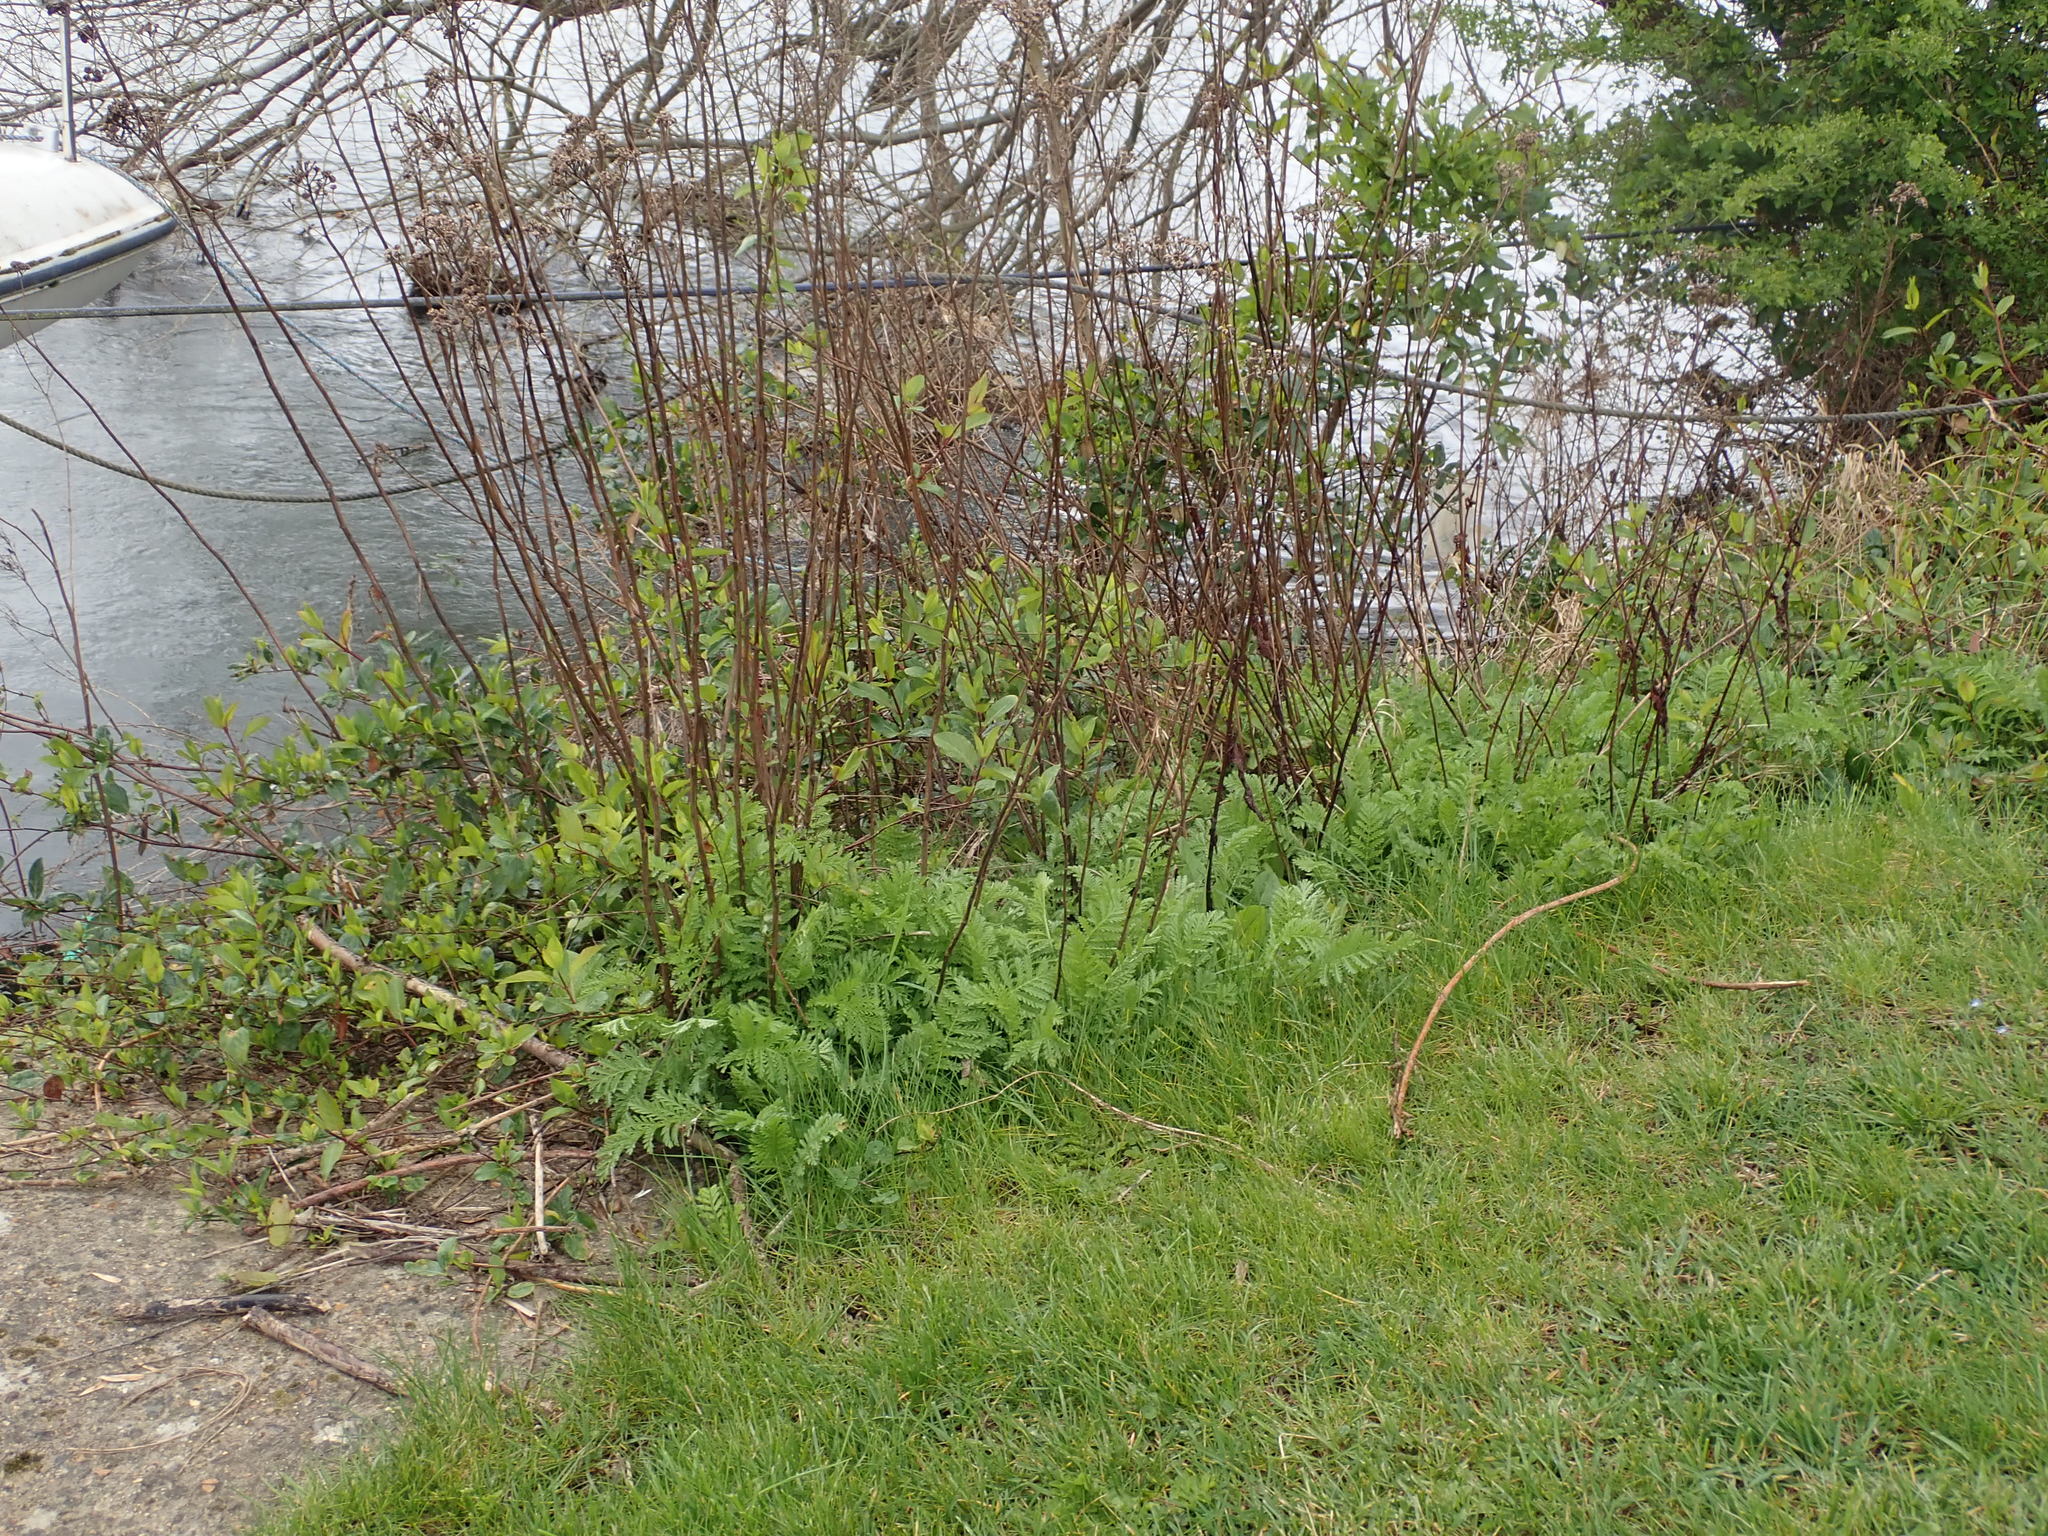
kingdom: Plantae
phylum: Tracheophyta
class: Magnoliopsida
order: Asterales
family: Asteraceae
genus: Tanacetum
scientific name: Tanacetum vulgare
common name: Common tansy
